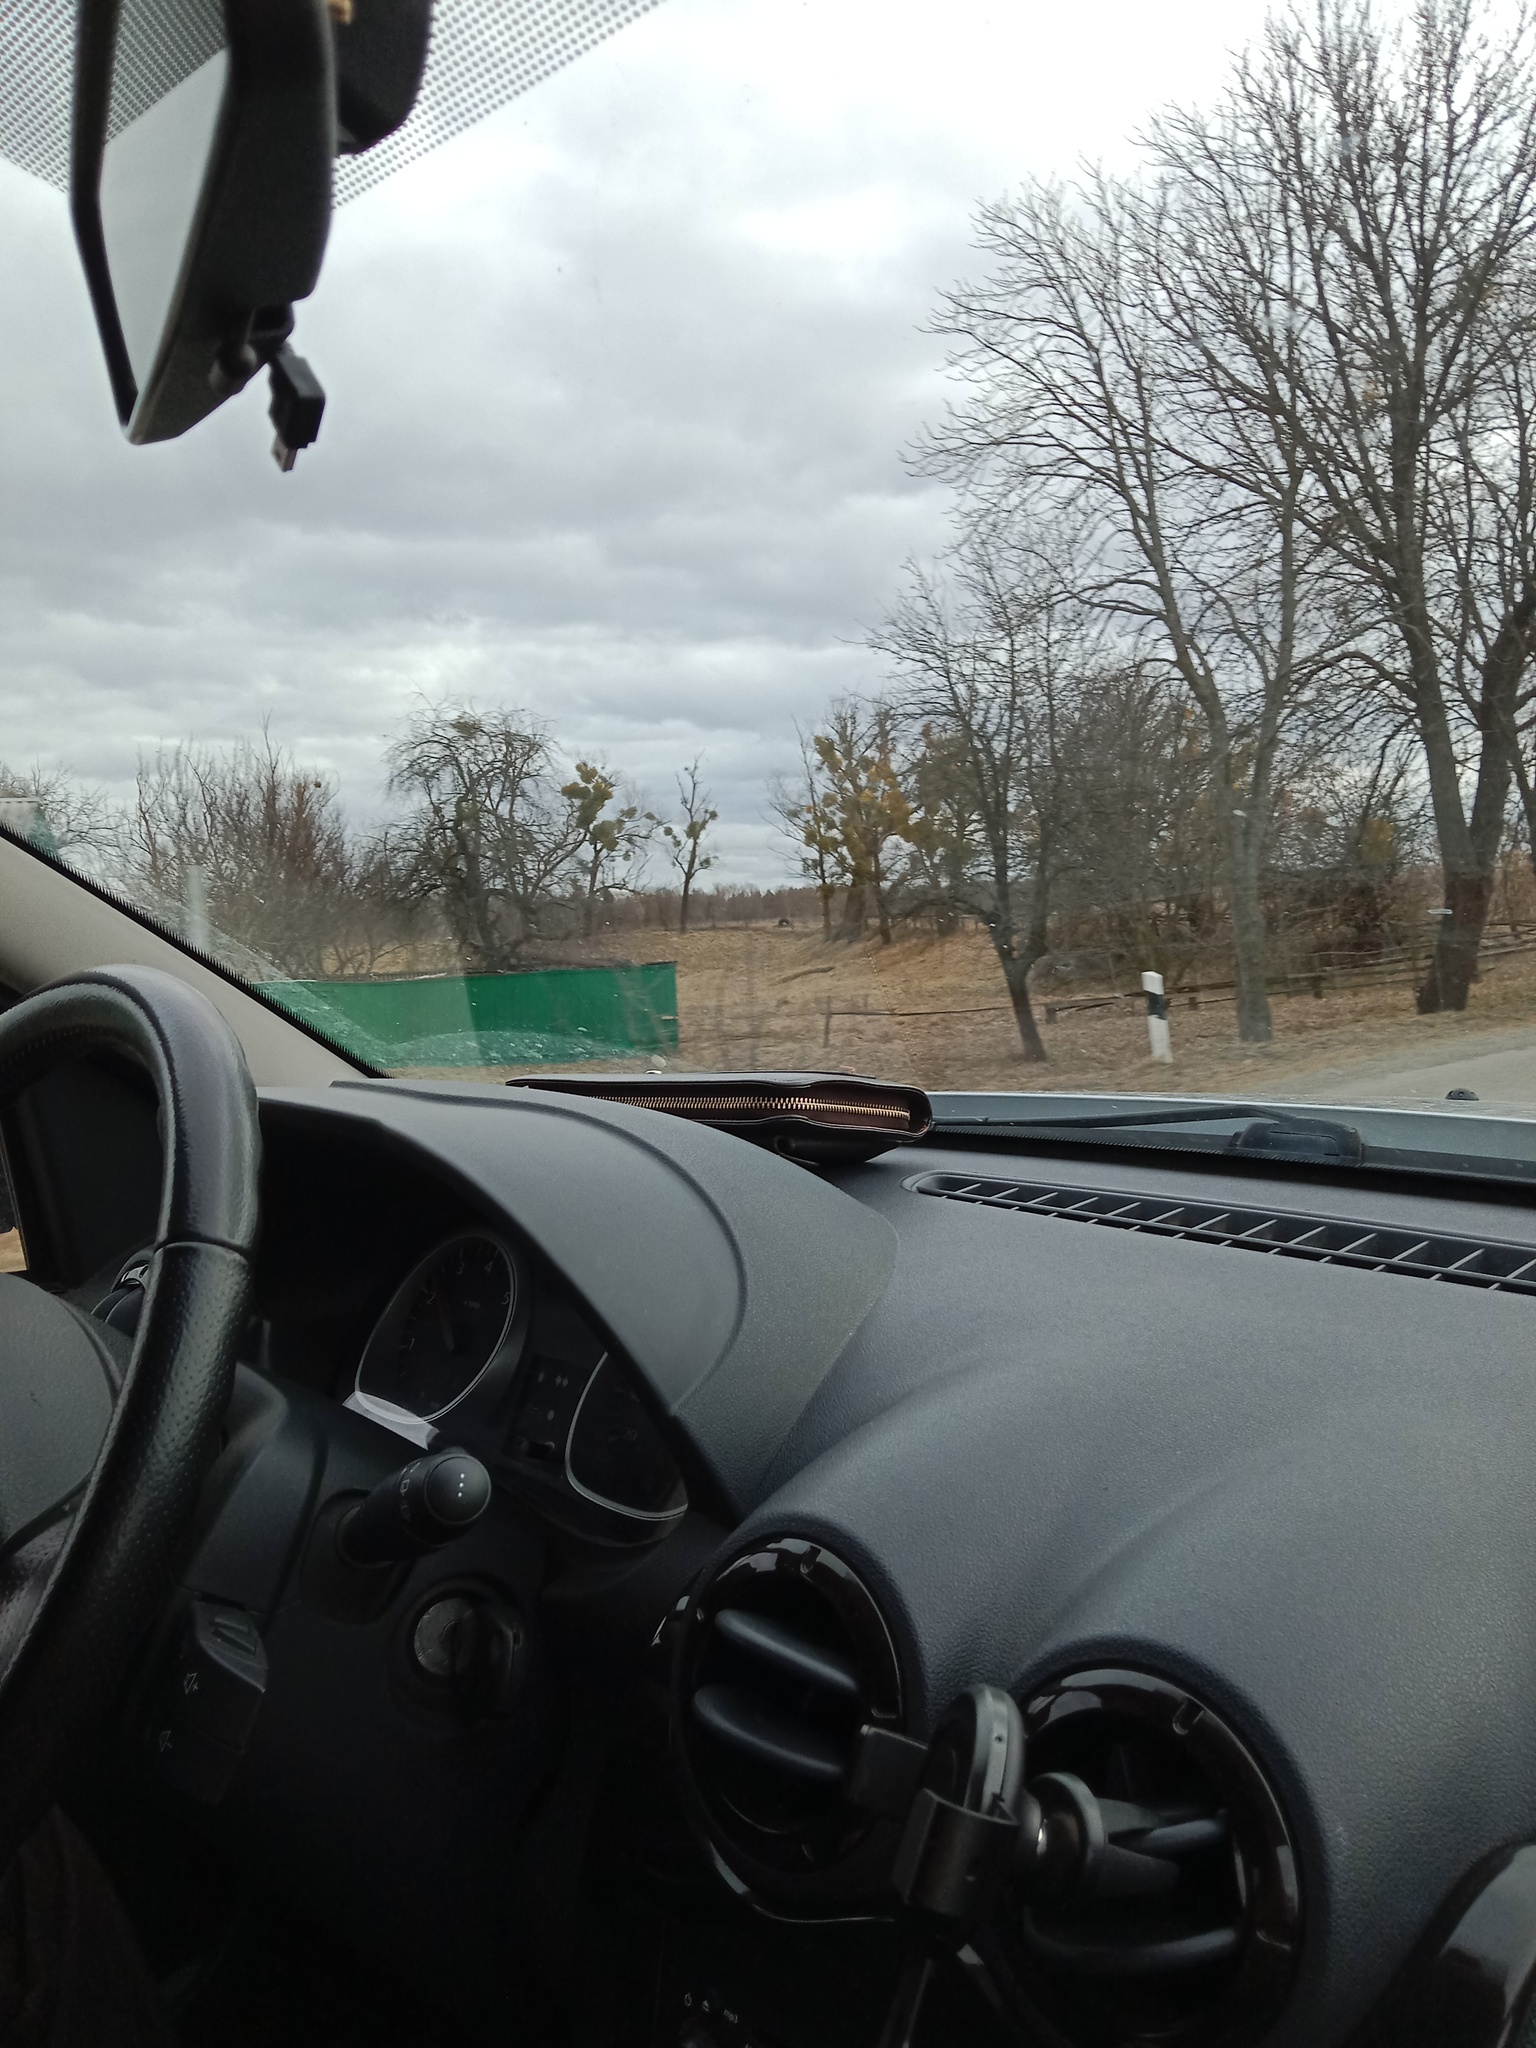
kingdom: Plantae
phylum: Tracheophyta
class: Magnoliopsida
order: Santalales
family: Viscaceae
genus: Viscum
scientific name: Viscum album
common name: Mistletoe
